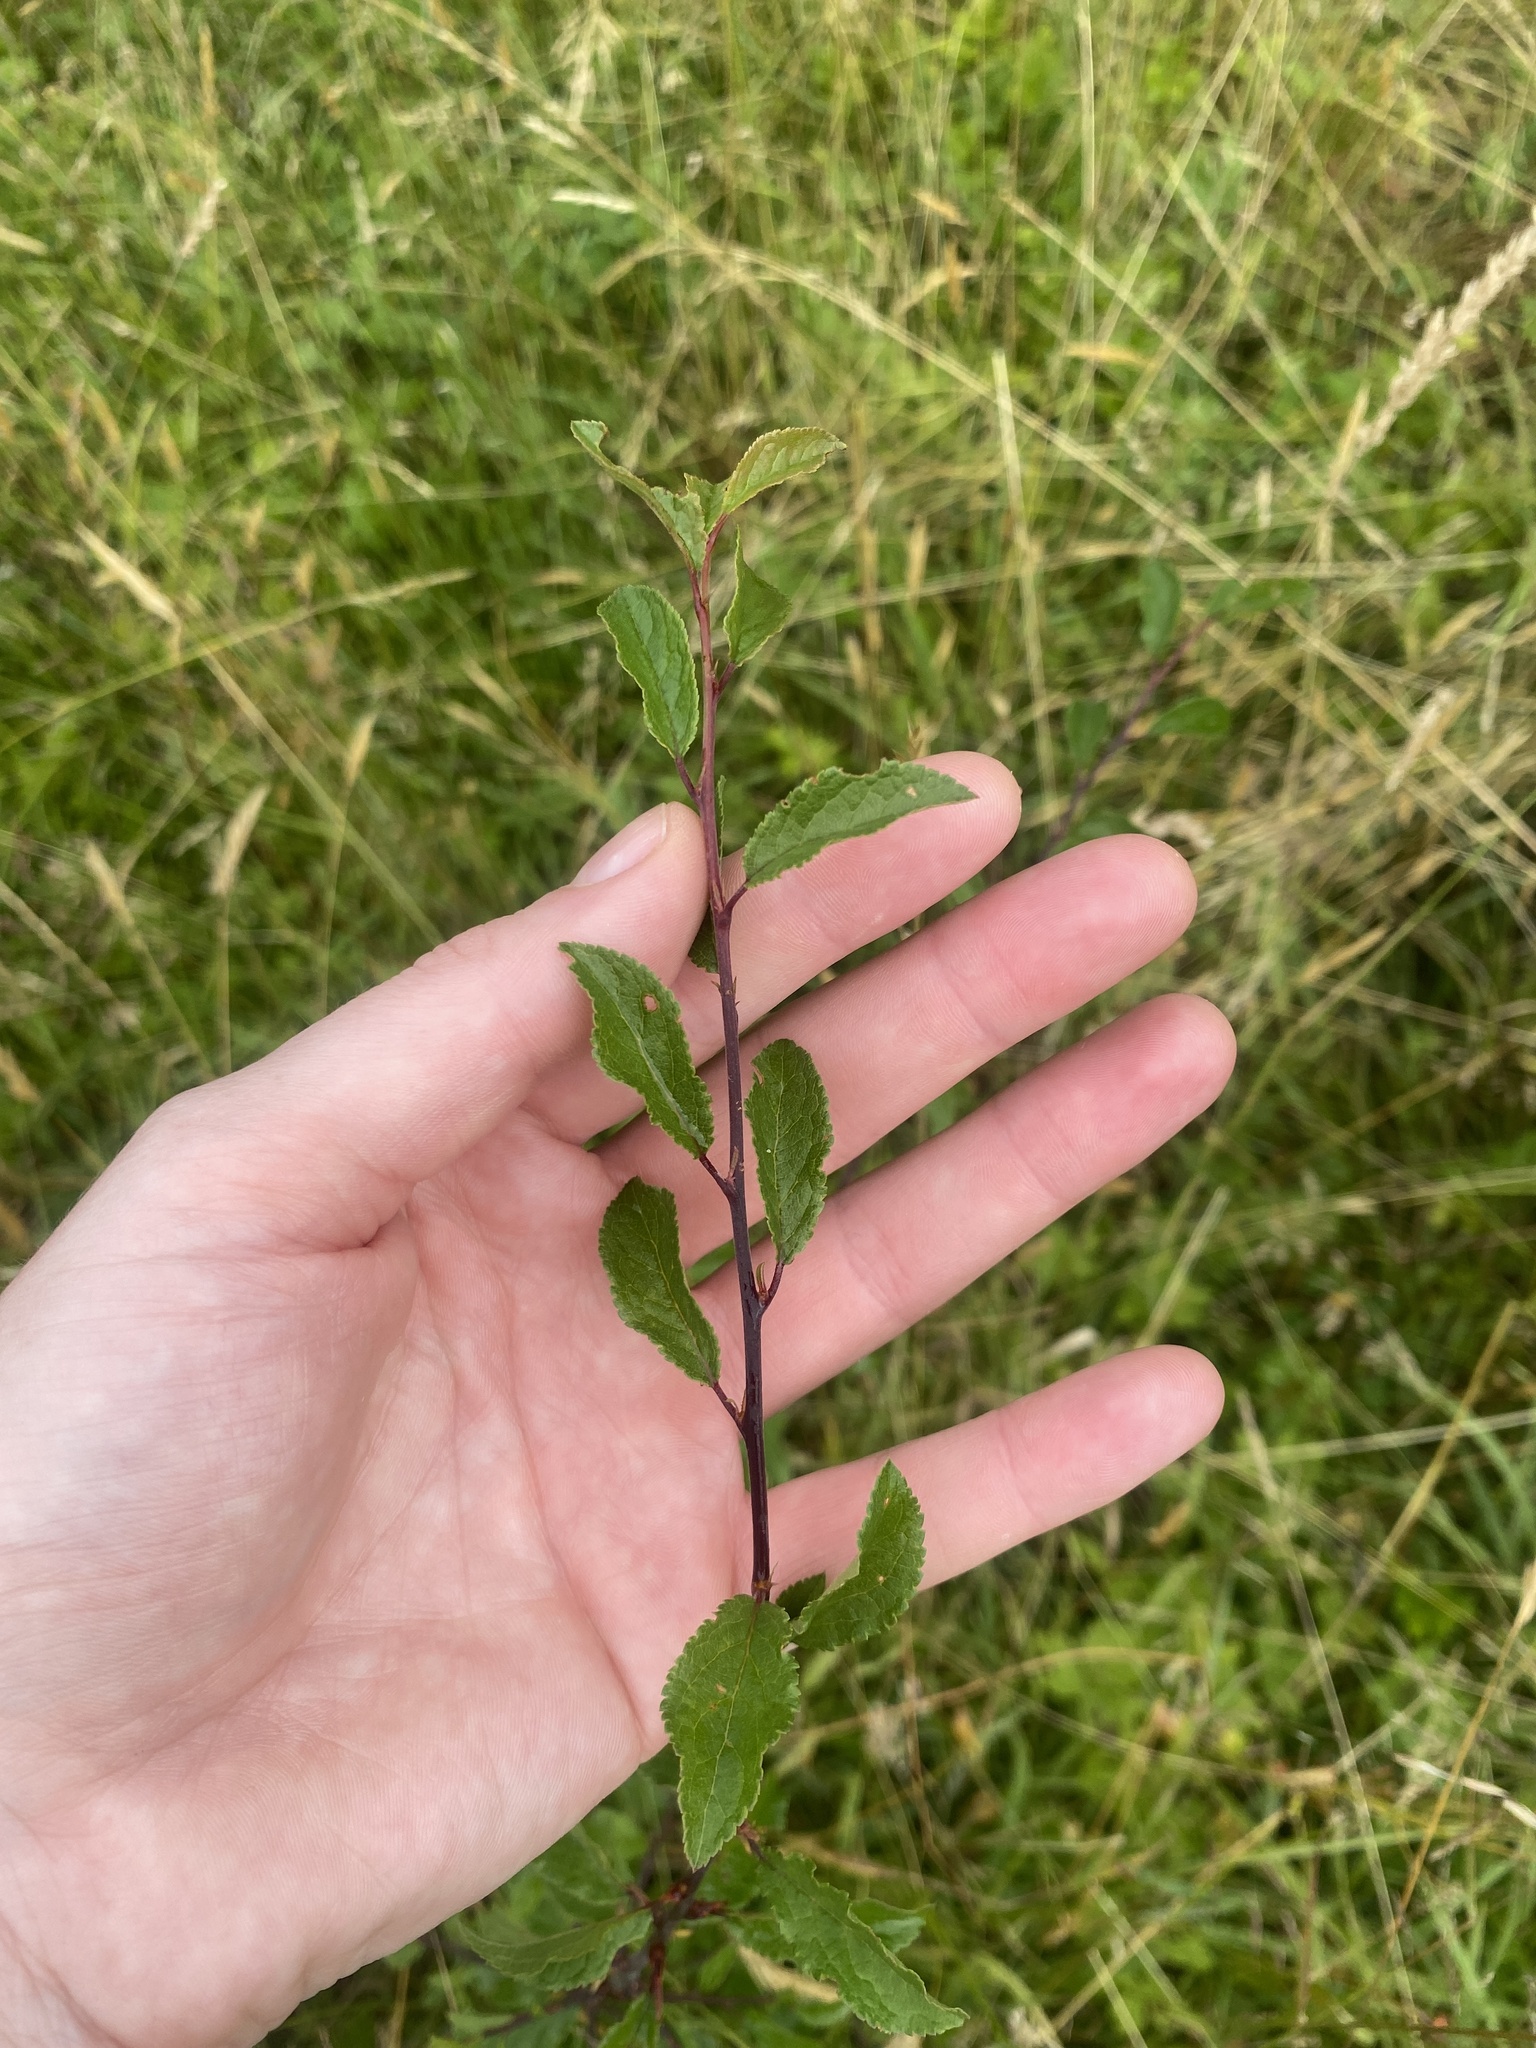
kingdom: Plantae
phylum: Tracheophyta
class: Magnoliopsida
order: Rosales
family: Rosaceae
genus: Prunus
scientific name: Prunus spinosa
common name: Blackthorn
